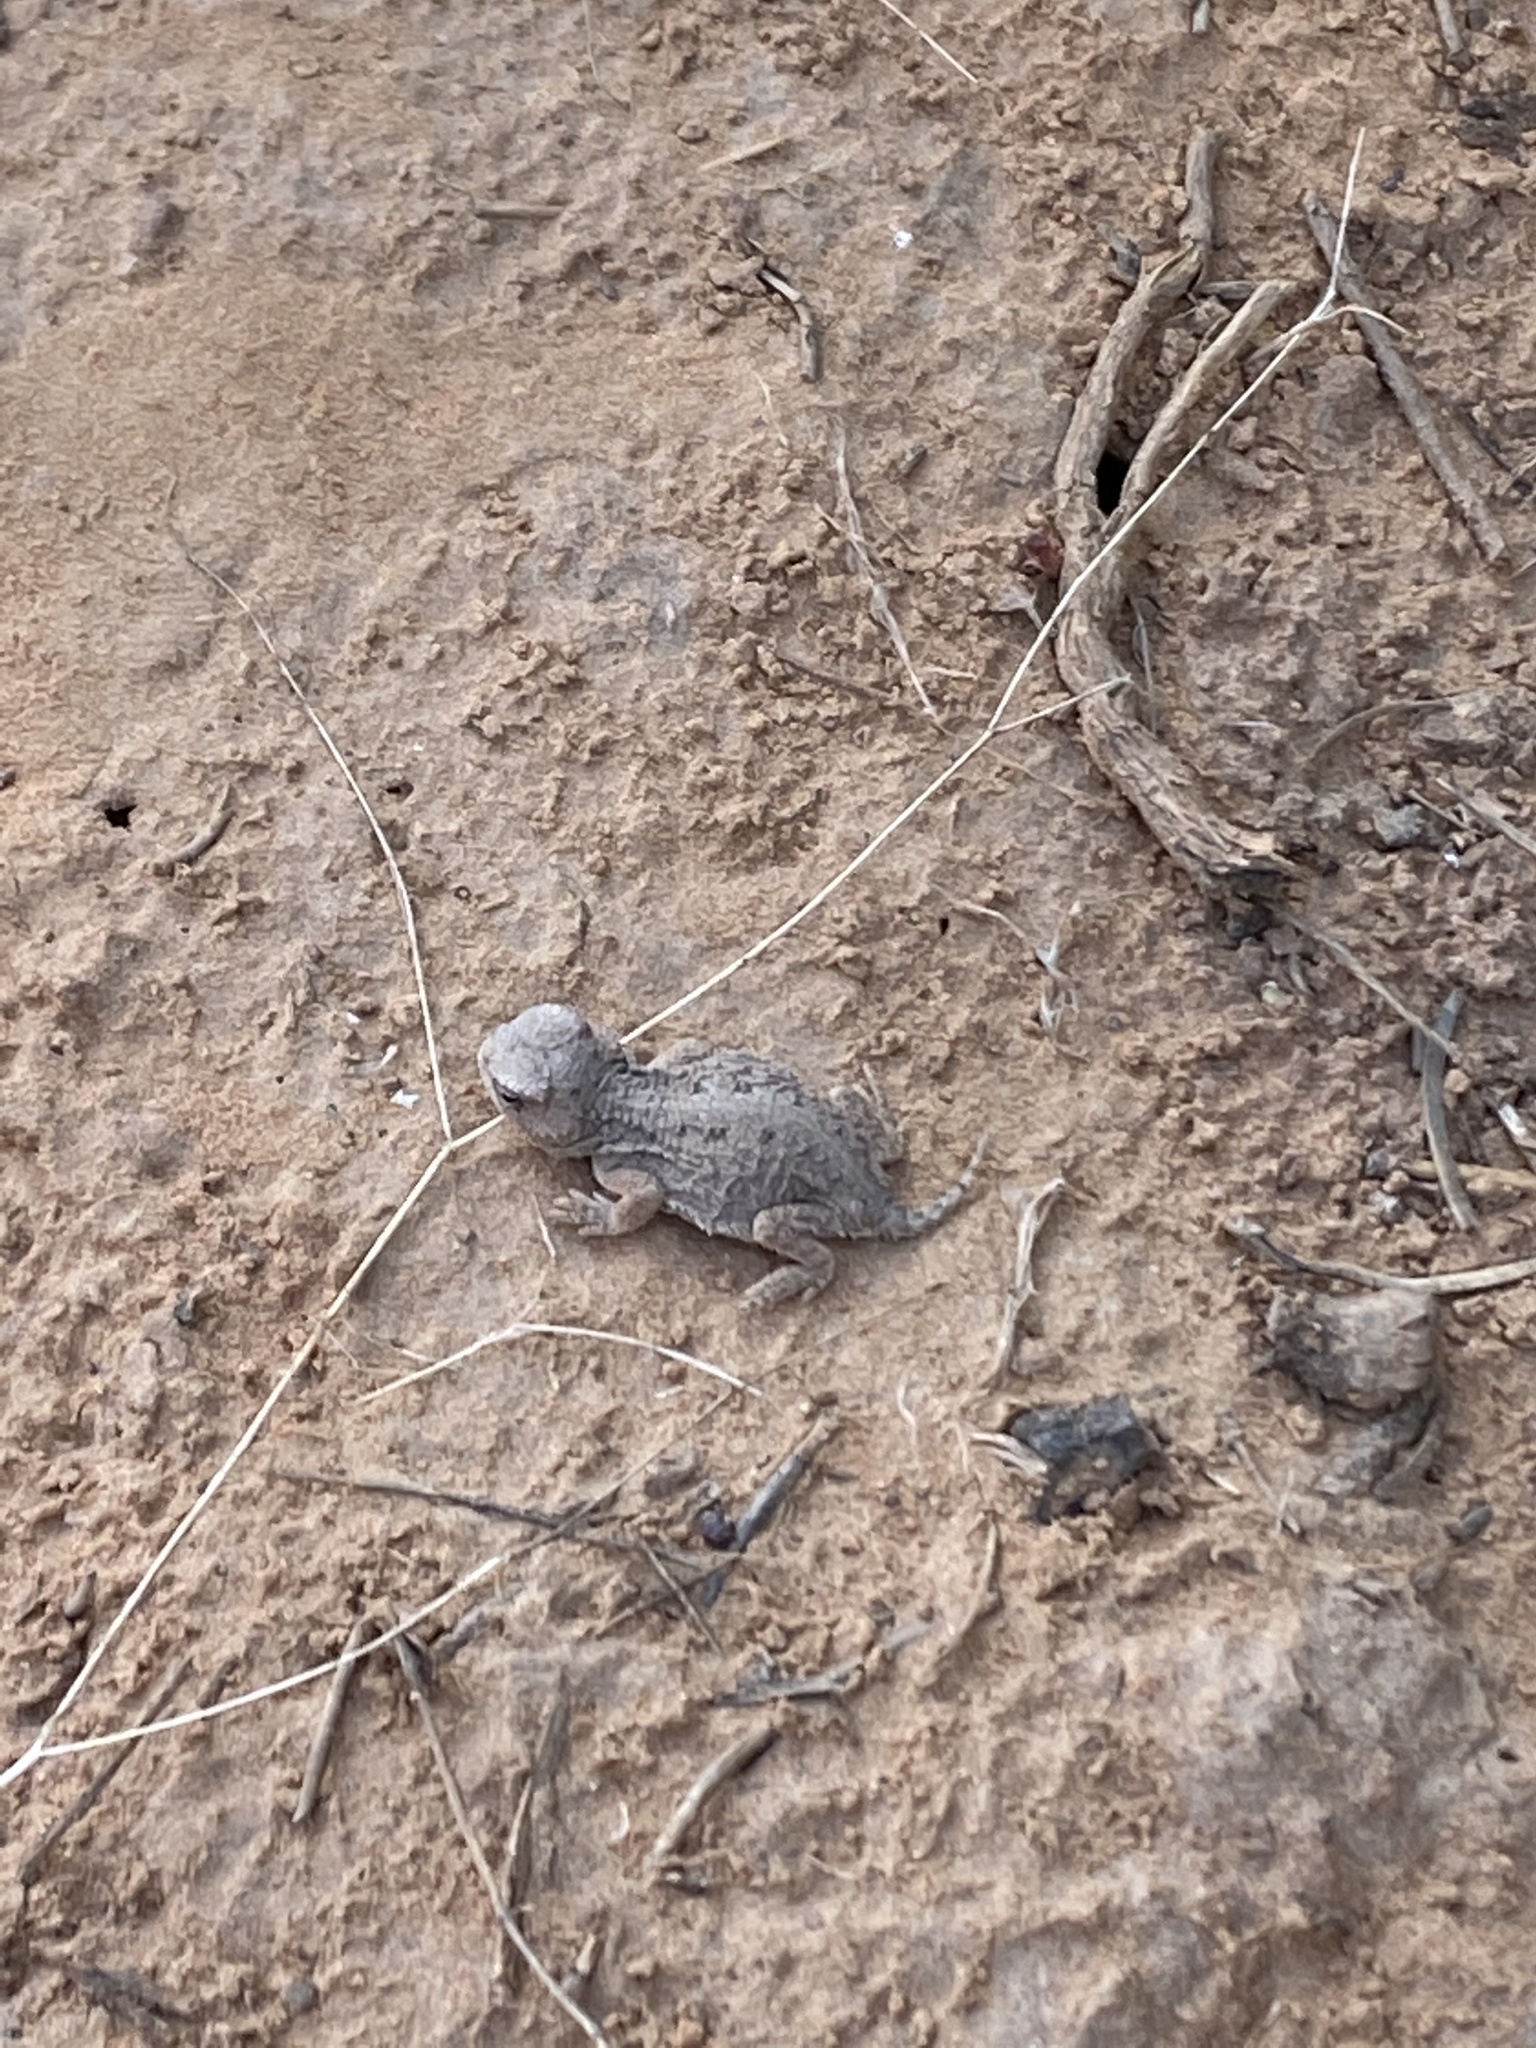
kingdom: Animalia
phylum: Chordata
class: Squamata
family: Phrynosomatidae
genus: Phrynosoma
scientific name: Phrynosoma hernandesi
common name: Greater short-horned lizard
